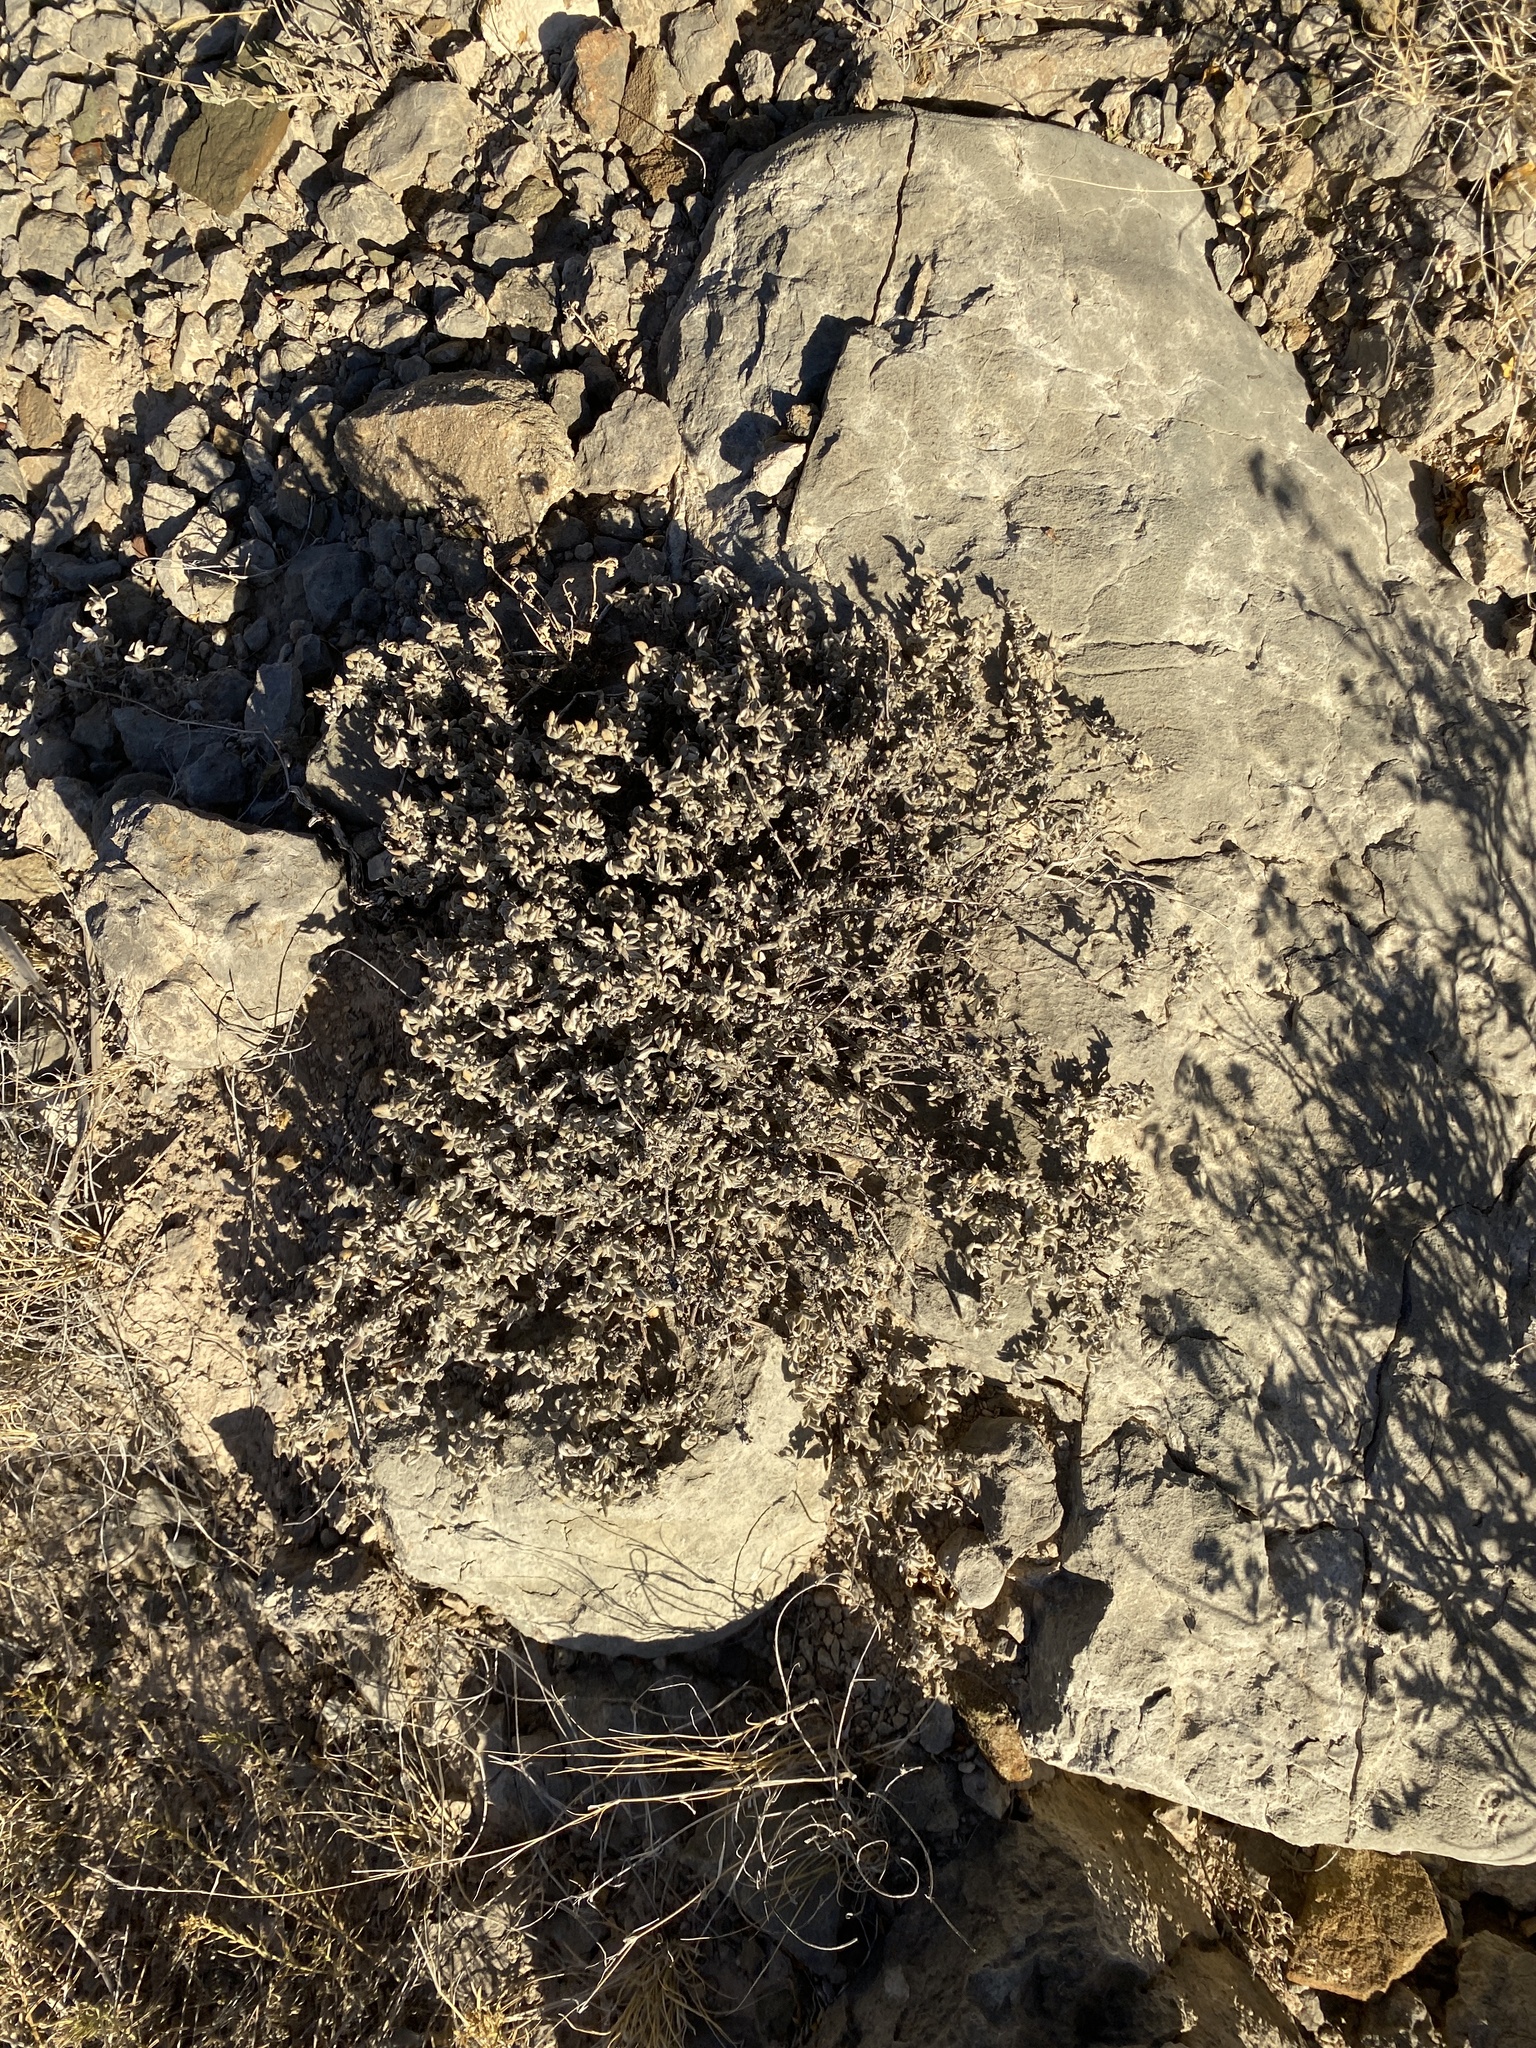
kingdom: Plantae
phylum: Tracheophyta
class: Magnoliopsida
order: Boraginales
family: Ehretiaceae
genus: Tiquilia
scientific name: Tiquilia canescens
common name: Hairy tiquilia
